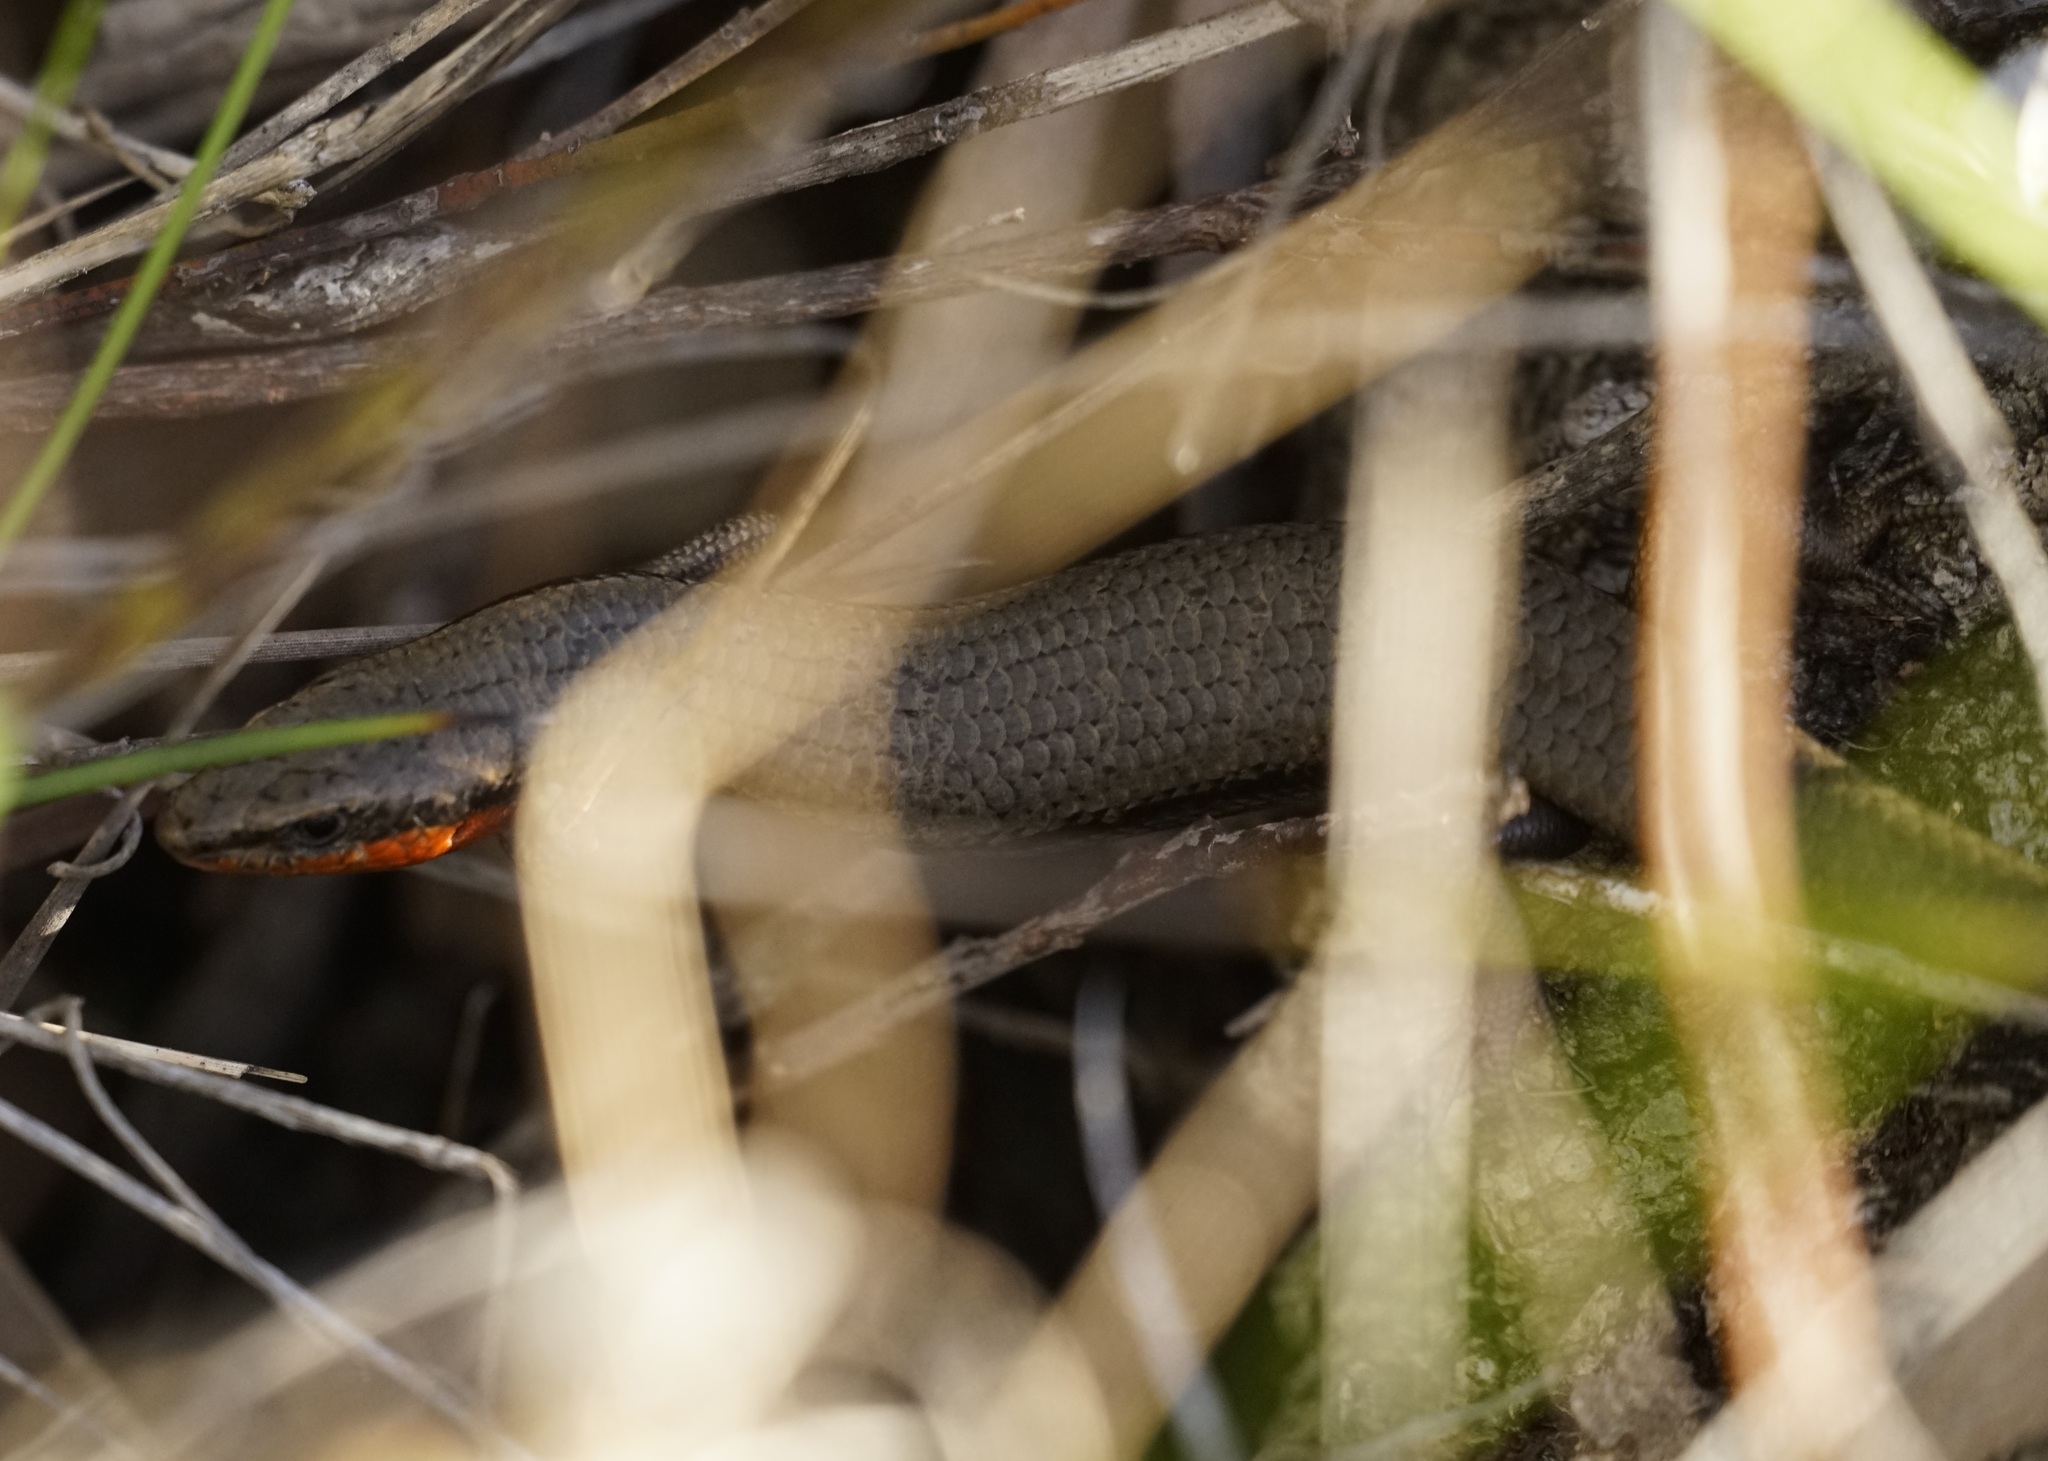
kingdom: Animalia
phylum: Chordata
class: Squamata
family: Scincidae
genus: Acritoscincus
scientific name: Acritoscincus platynotus
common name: Red-throated cool-skink
